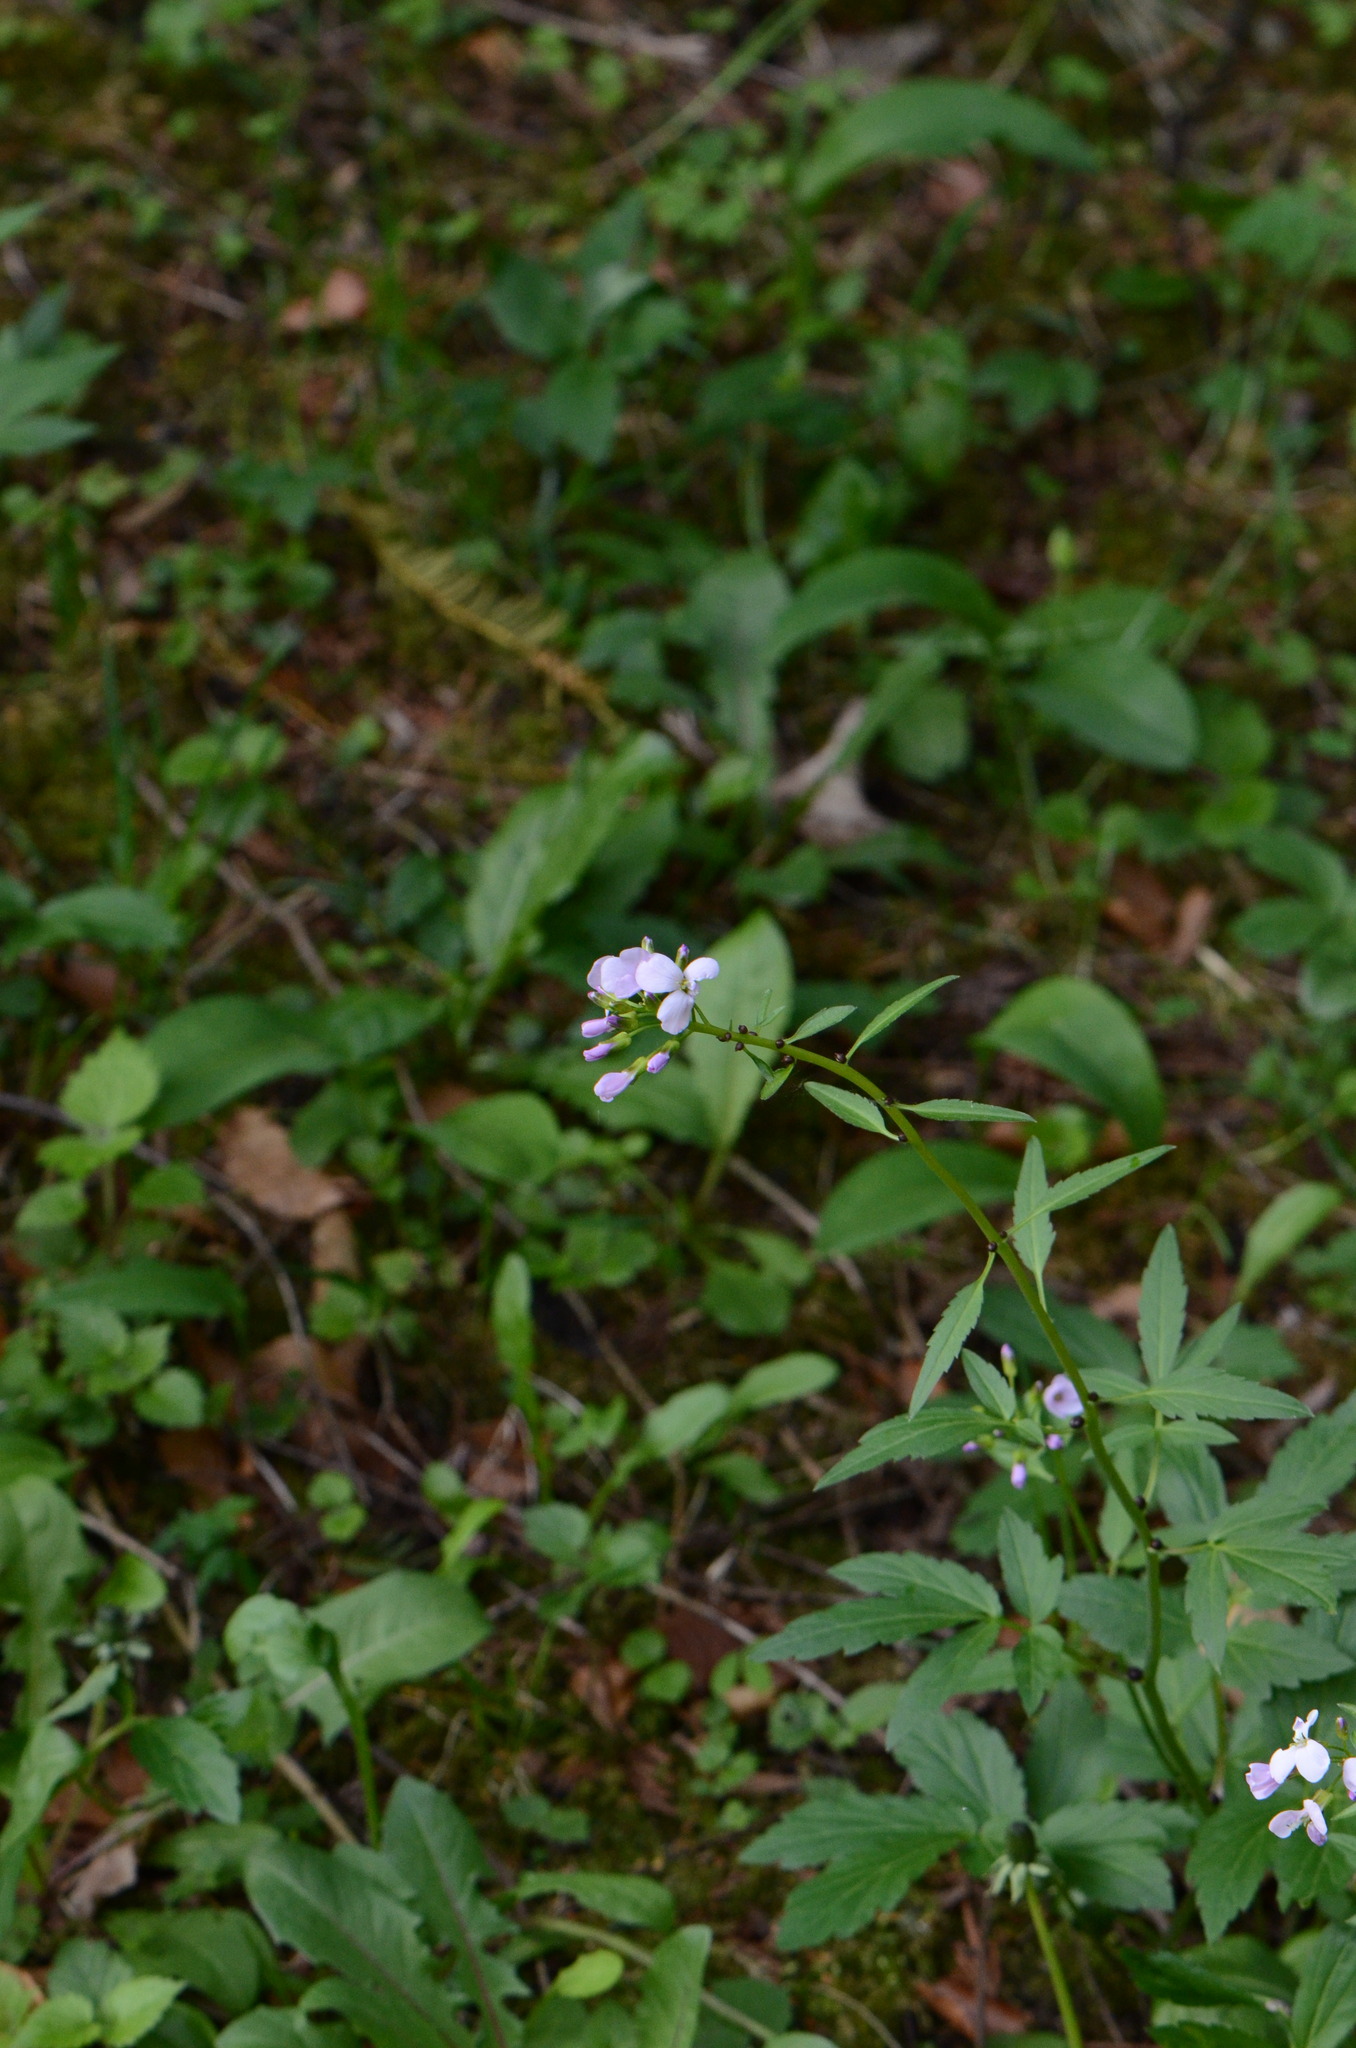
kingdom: Plantae
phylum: Tracheophyta
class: Magnoliopsida
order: Brassicales
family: Brassicaceae
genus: Cardamine
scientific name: Cardamine bulbifera
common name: Coralroot bittercress
